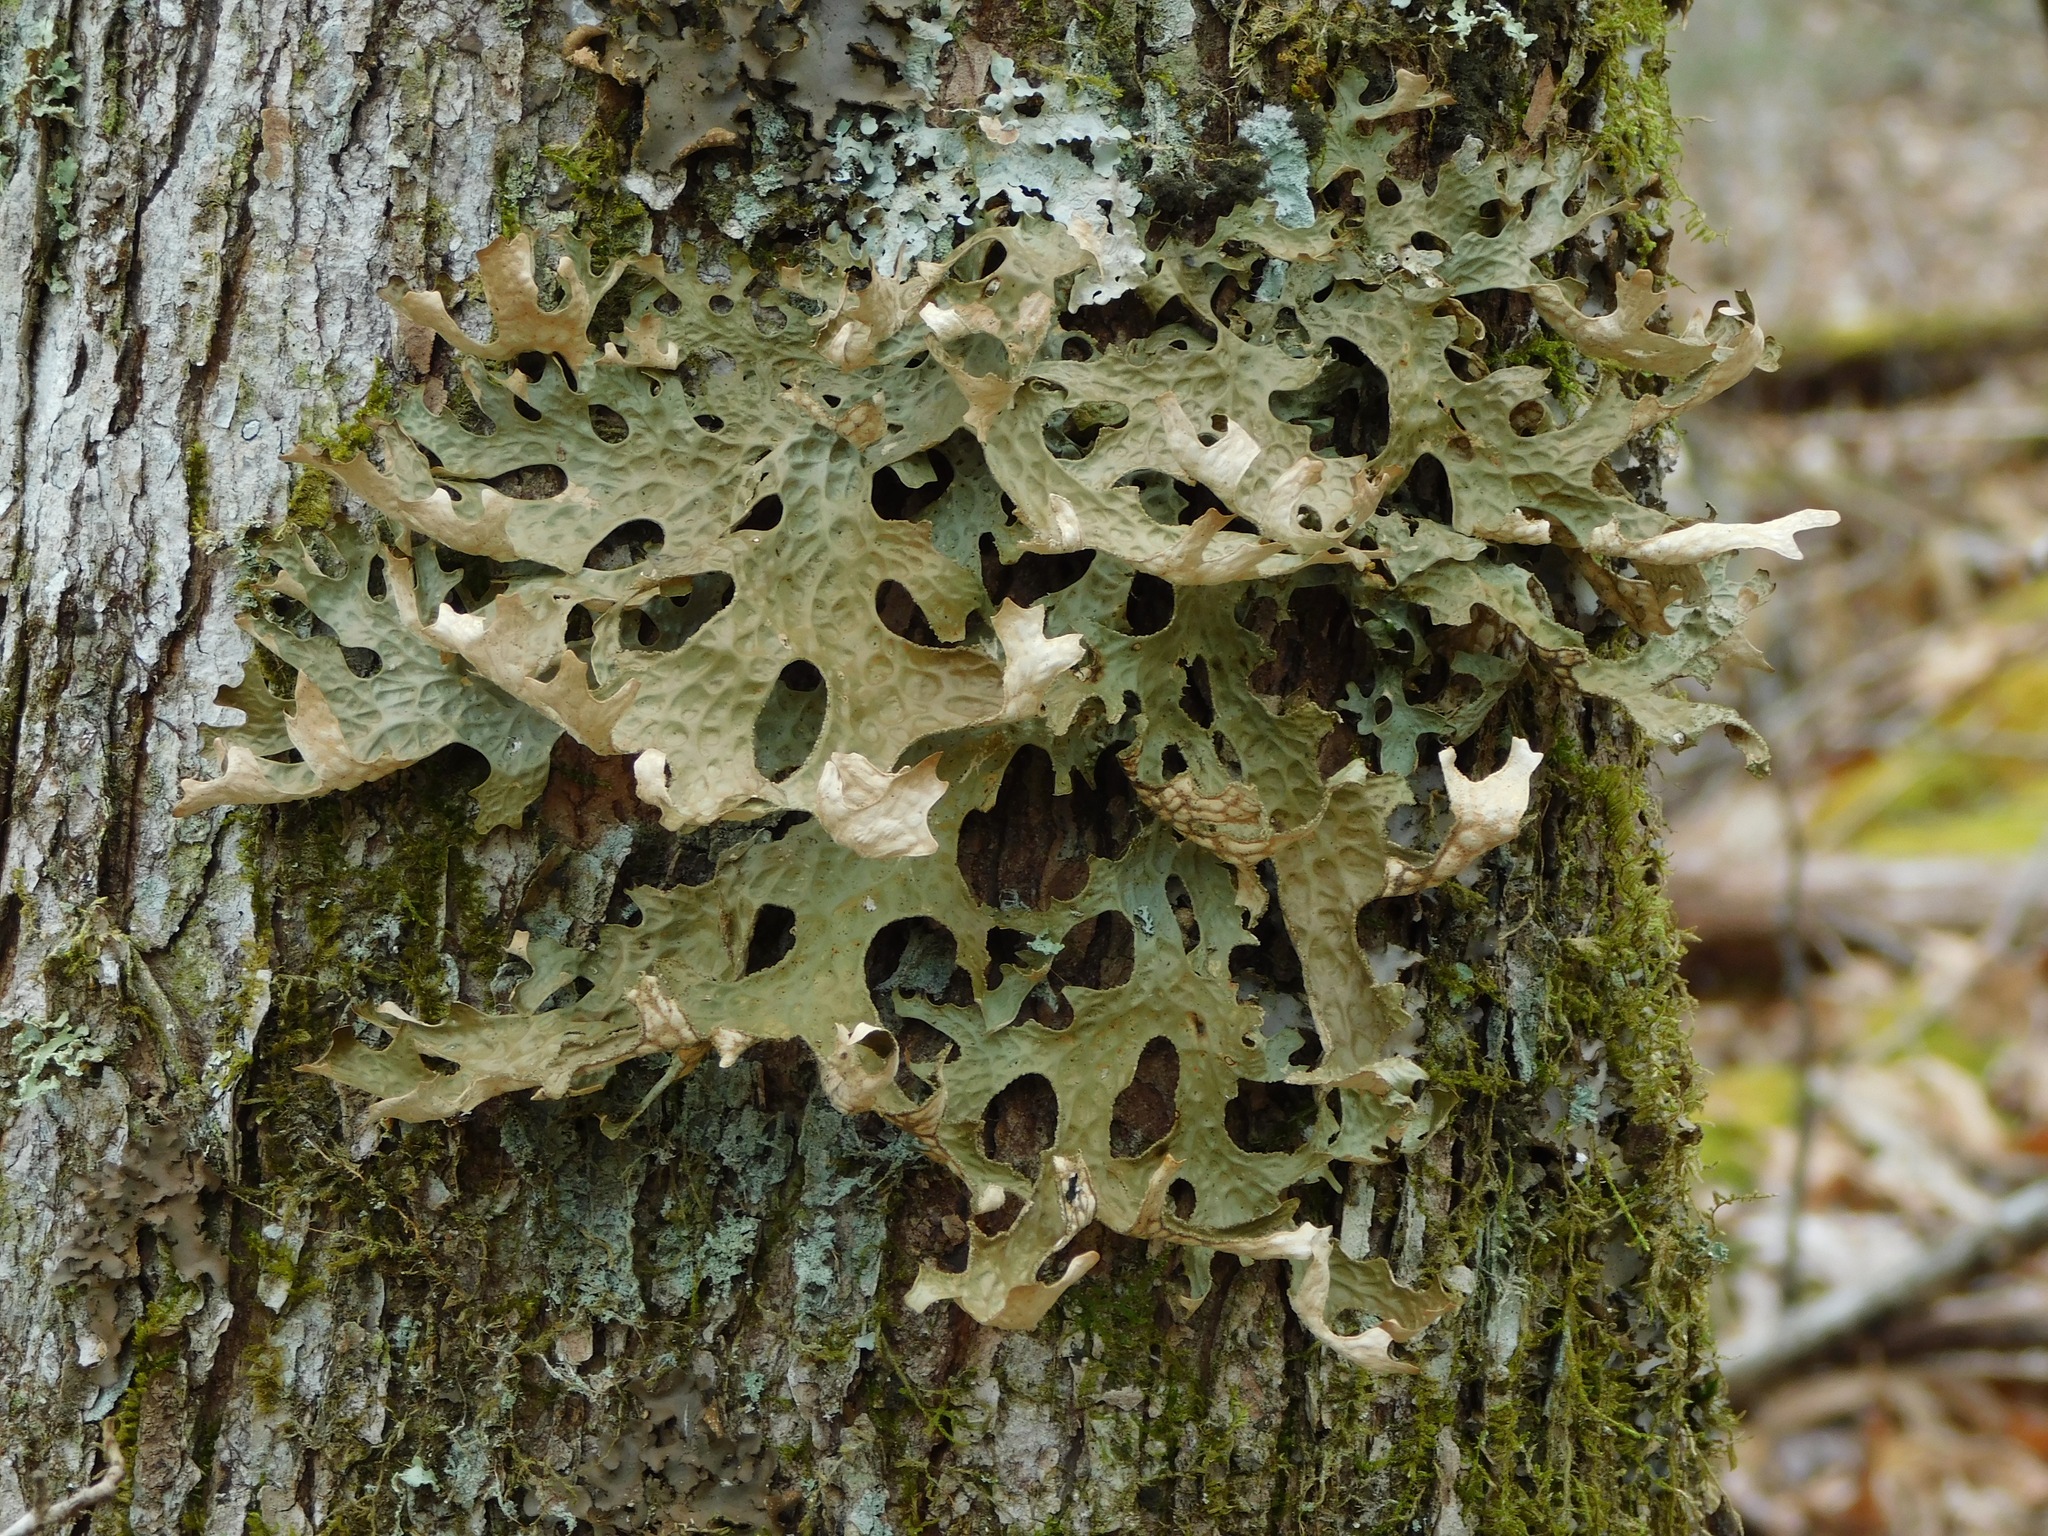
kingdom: Fungi
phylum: Ascomycota
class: Lecanoromycetes
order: Peltigerales
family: Lobariaceae
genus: Lobaria
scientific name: Lobaria pulmonaria
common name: Lungwort
